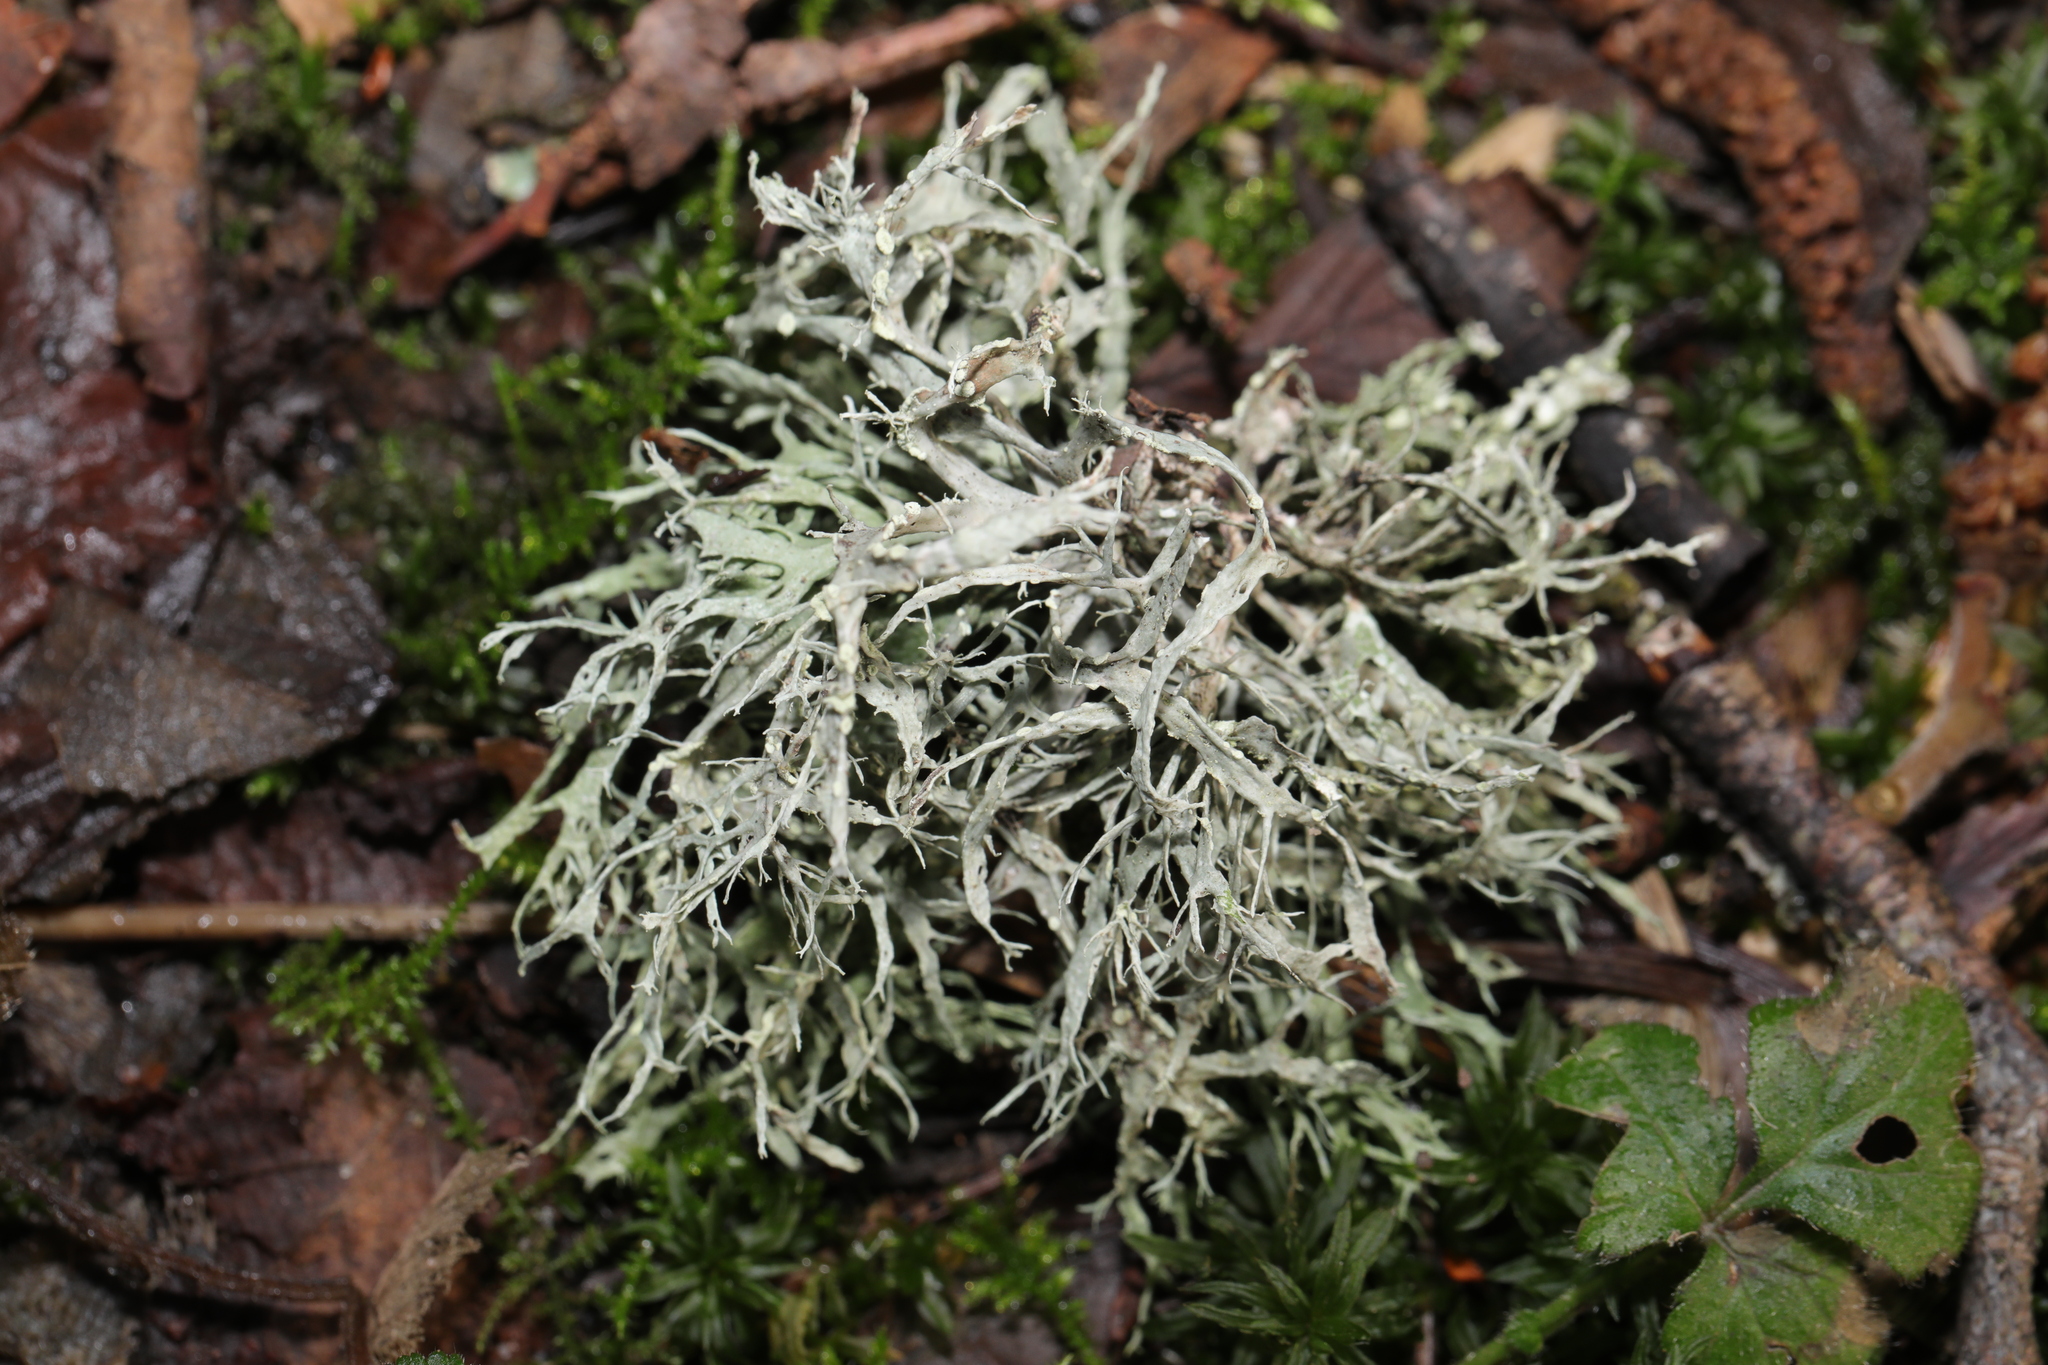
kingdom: Fungi
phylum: Ascomycota
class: Lecanoromycetes
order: Lecanorales
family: Ramalinaceae
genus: Ramalina
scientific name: Ramalina farinacea
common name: Farinose cartilage lichen
